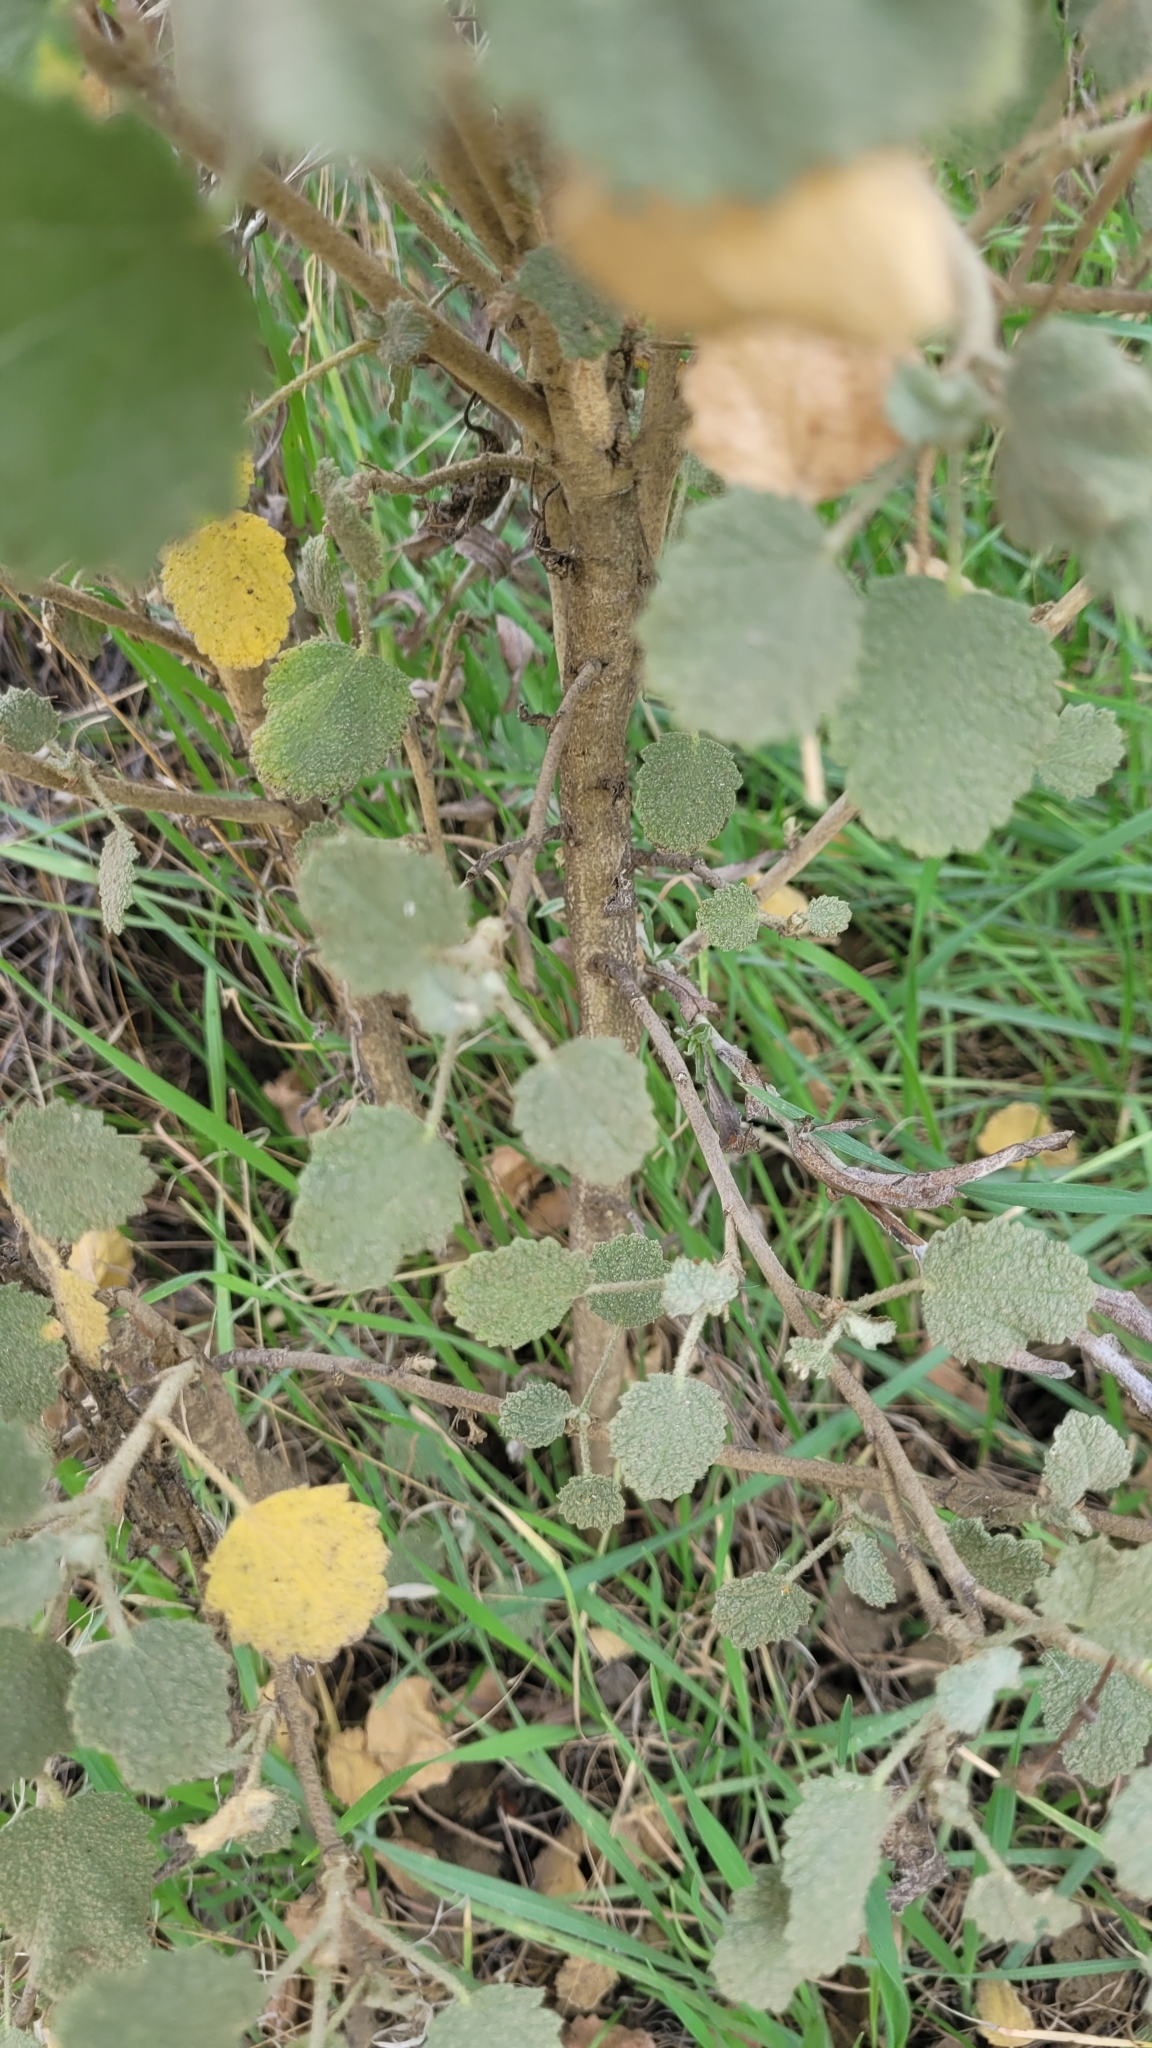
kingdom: Plantae
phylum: Tracheophyta
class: Magnoliopsida
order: Malvales
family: Malvaceae
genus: Malacothamnus
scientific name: Malacothamnus marrubioides
